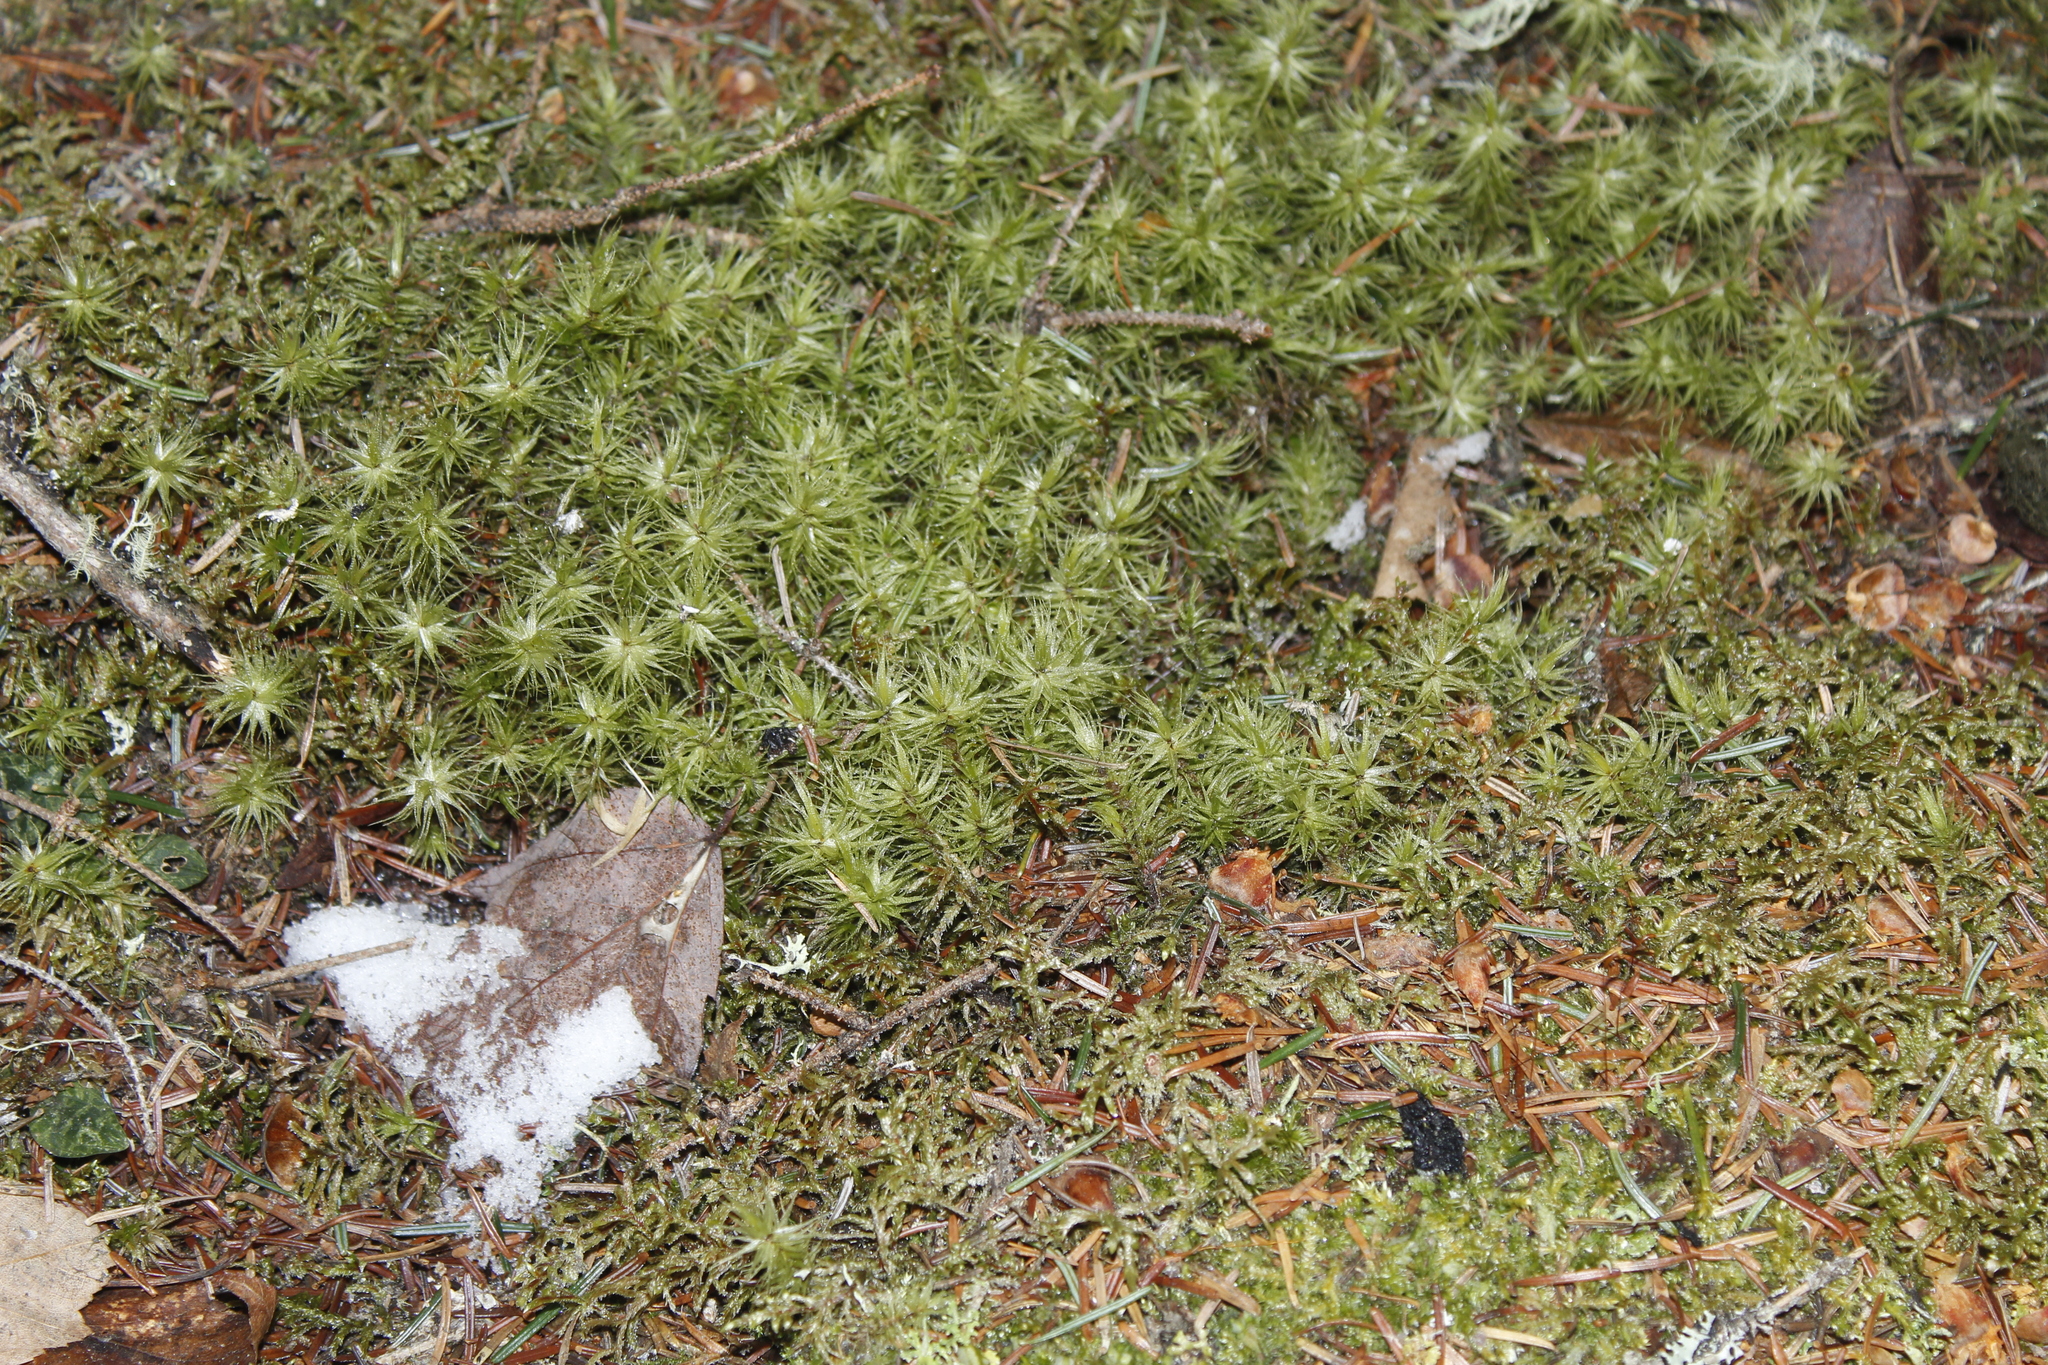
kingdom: Plantae
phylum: Bryophyta
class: Bryopsida
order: Dicranales
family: Dicranaceae
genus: Dicranum
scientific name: Dicranum polysetum
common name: Rugose fork-moss
